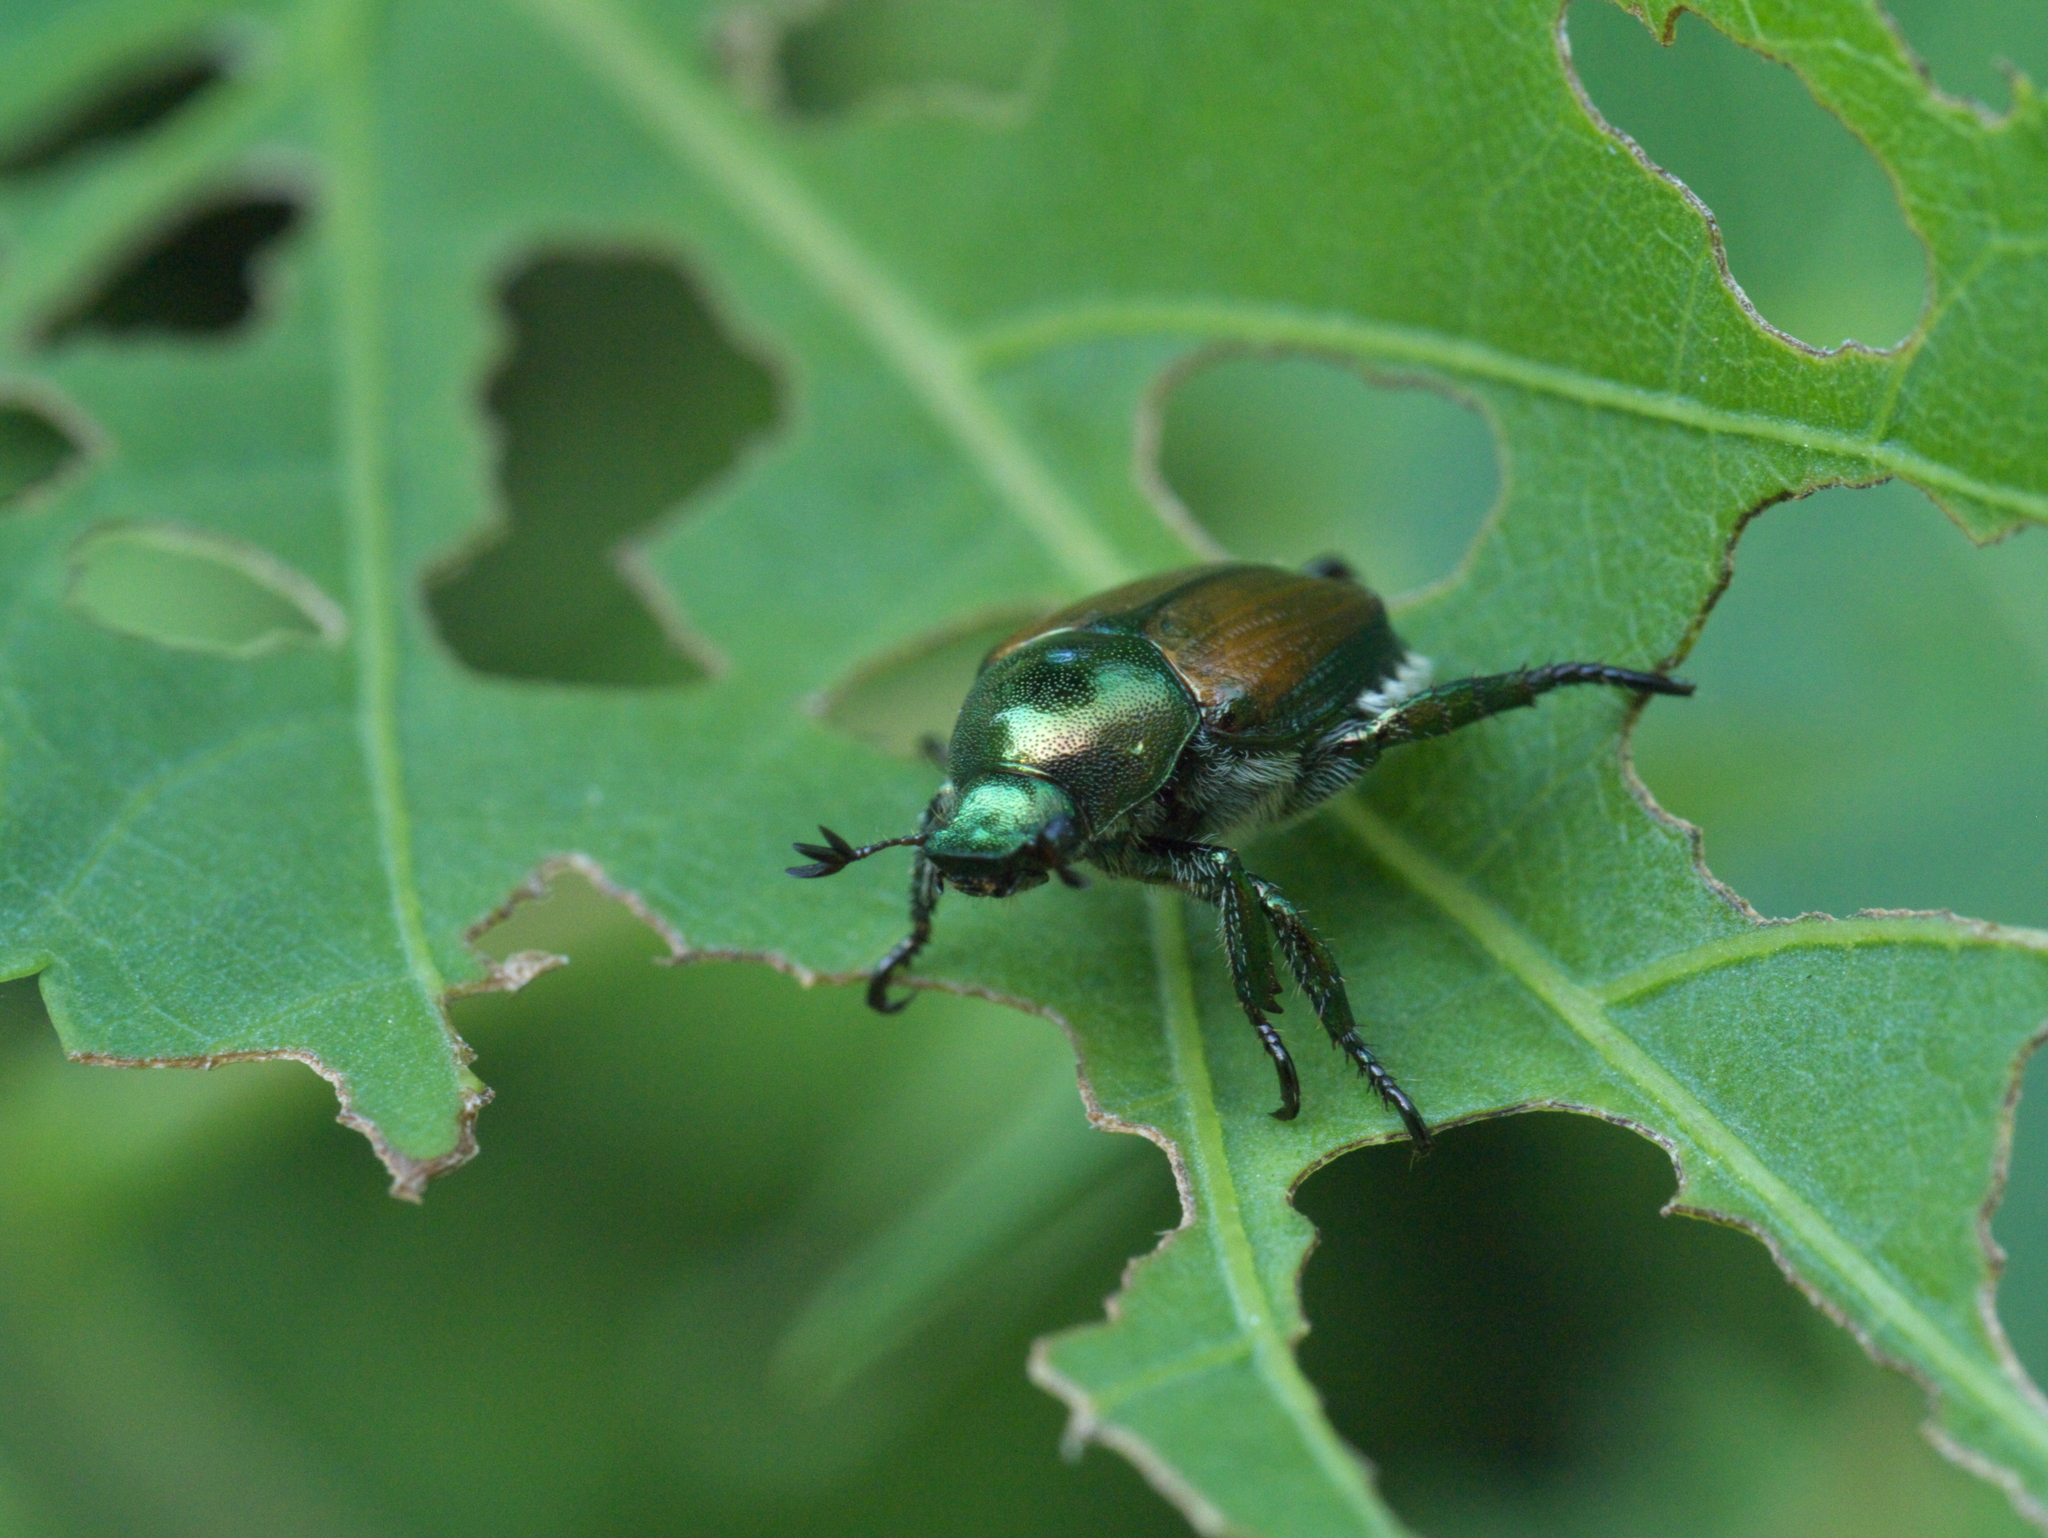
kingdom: Animalia
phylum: Arthropoda
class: Insecta
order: Coleoptera
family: Scarabaeidae
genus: Popillia
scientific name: Popillia japonica
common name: Japanese beetle
